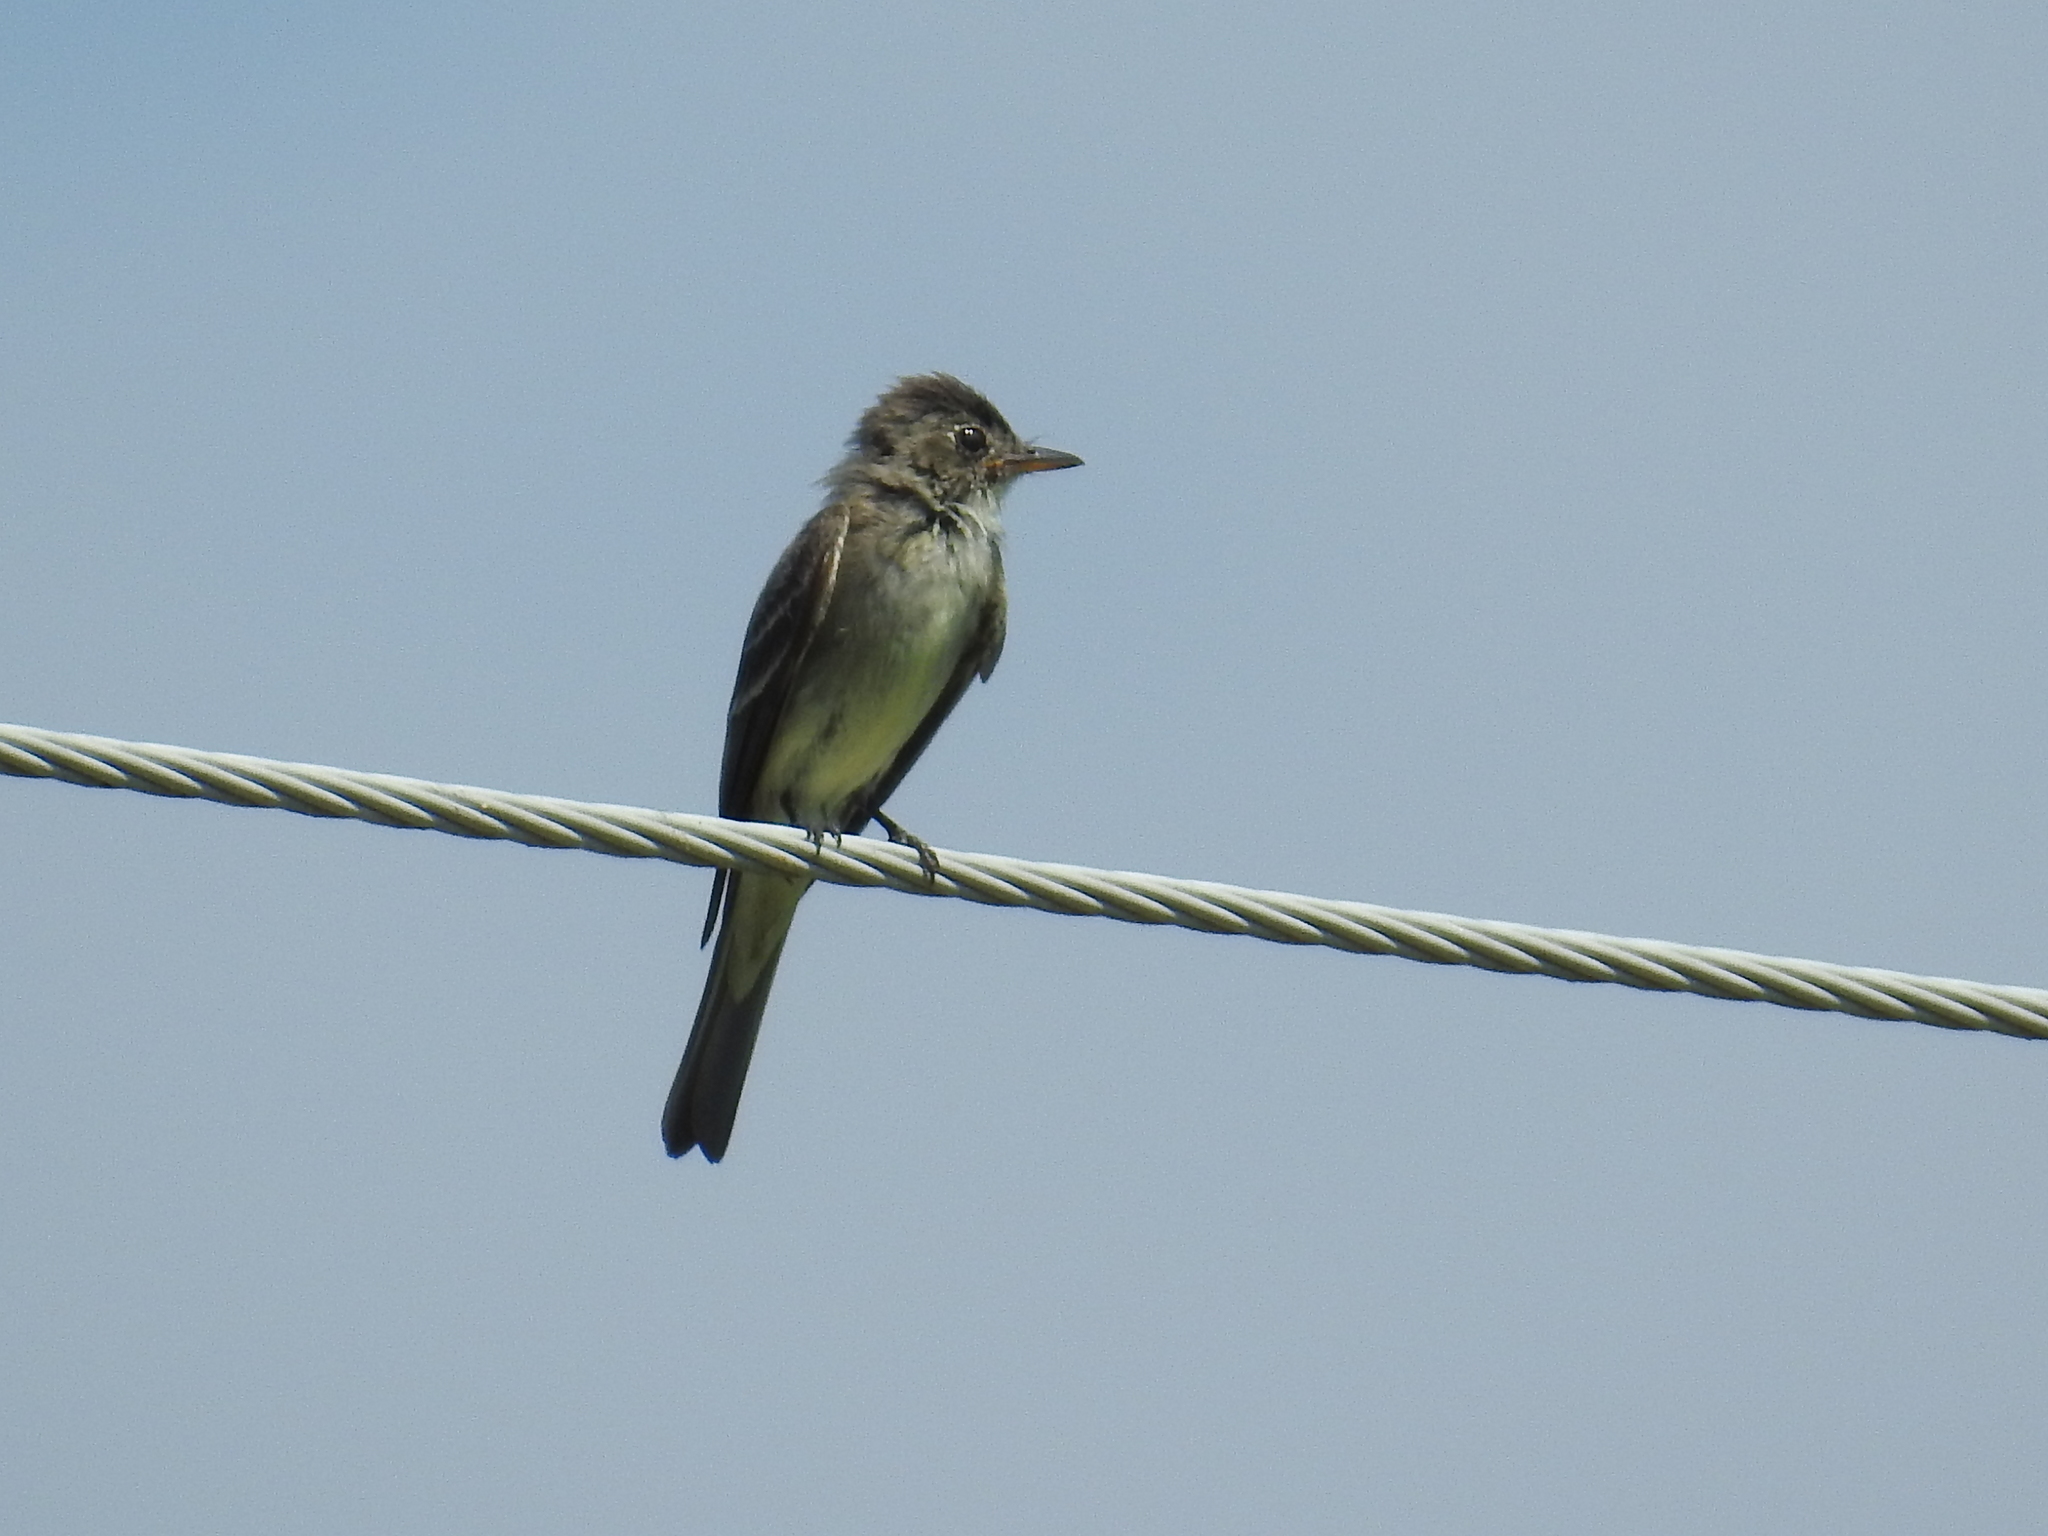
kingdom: Animalia
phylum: Chordata
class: Aves
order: Passeriformes
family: Tyrannidae
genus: Contopus
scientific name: Contopus virens
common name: Eastern wood-pewee
